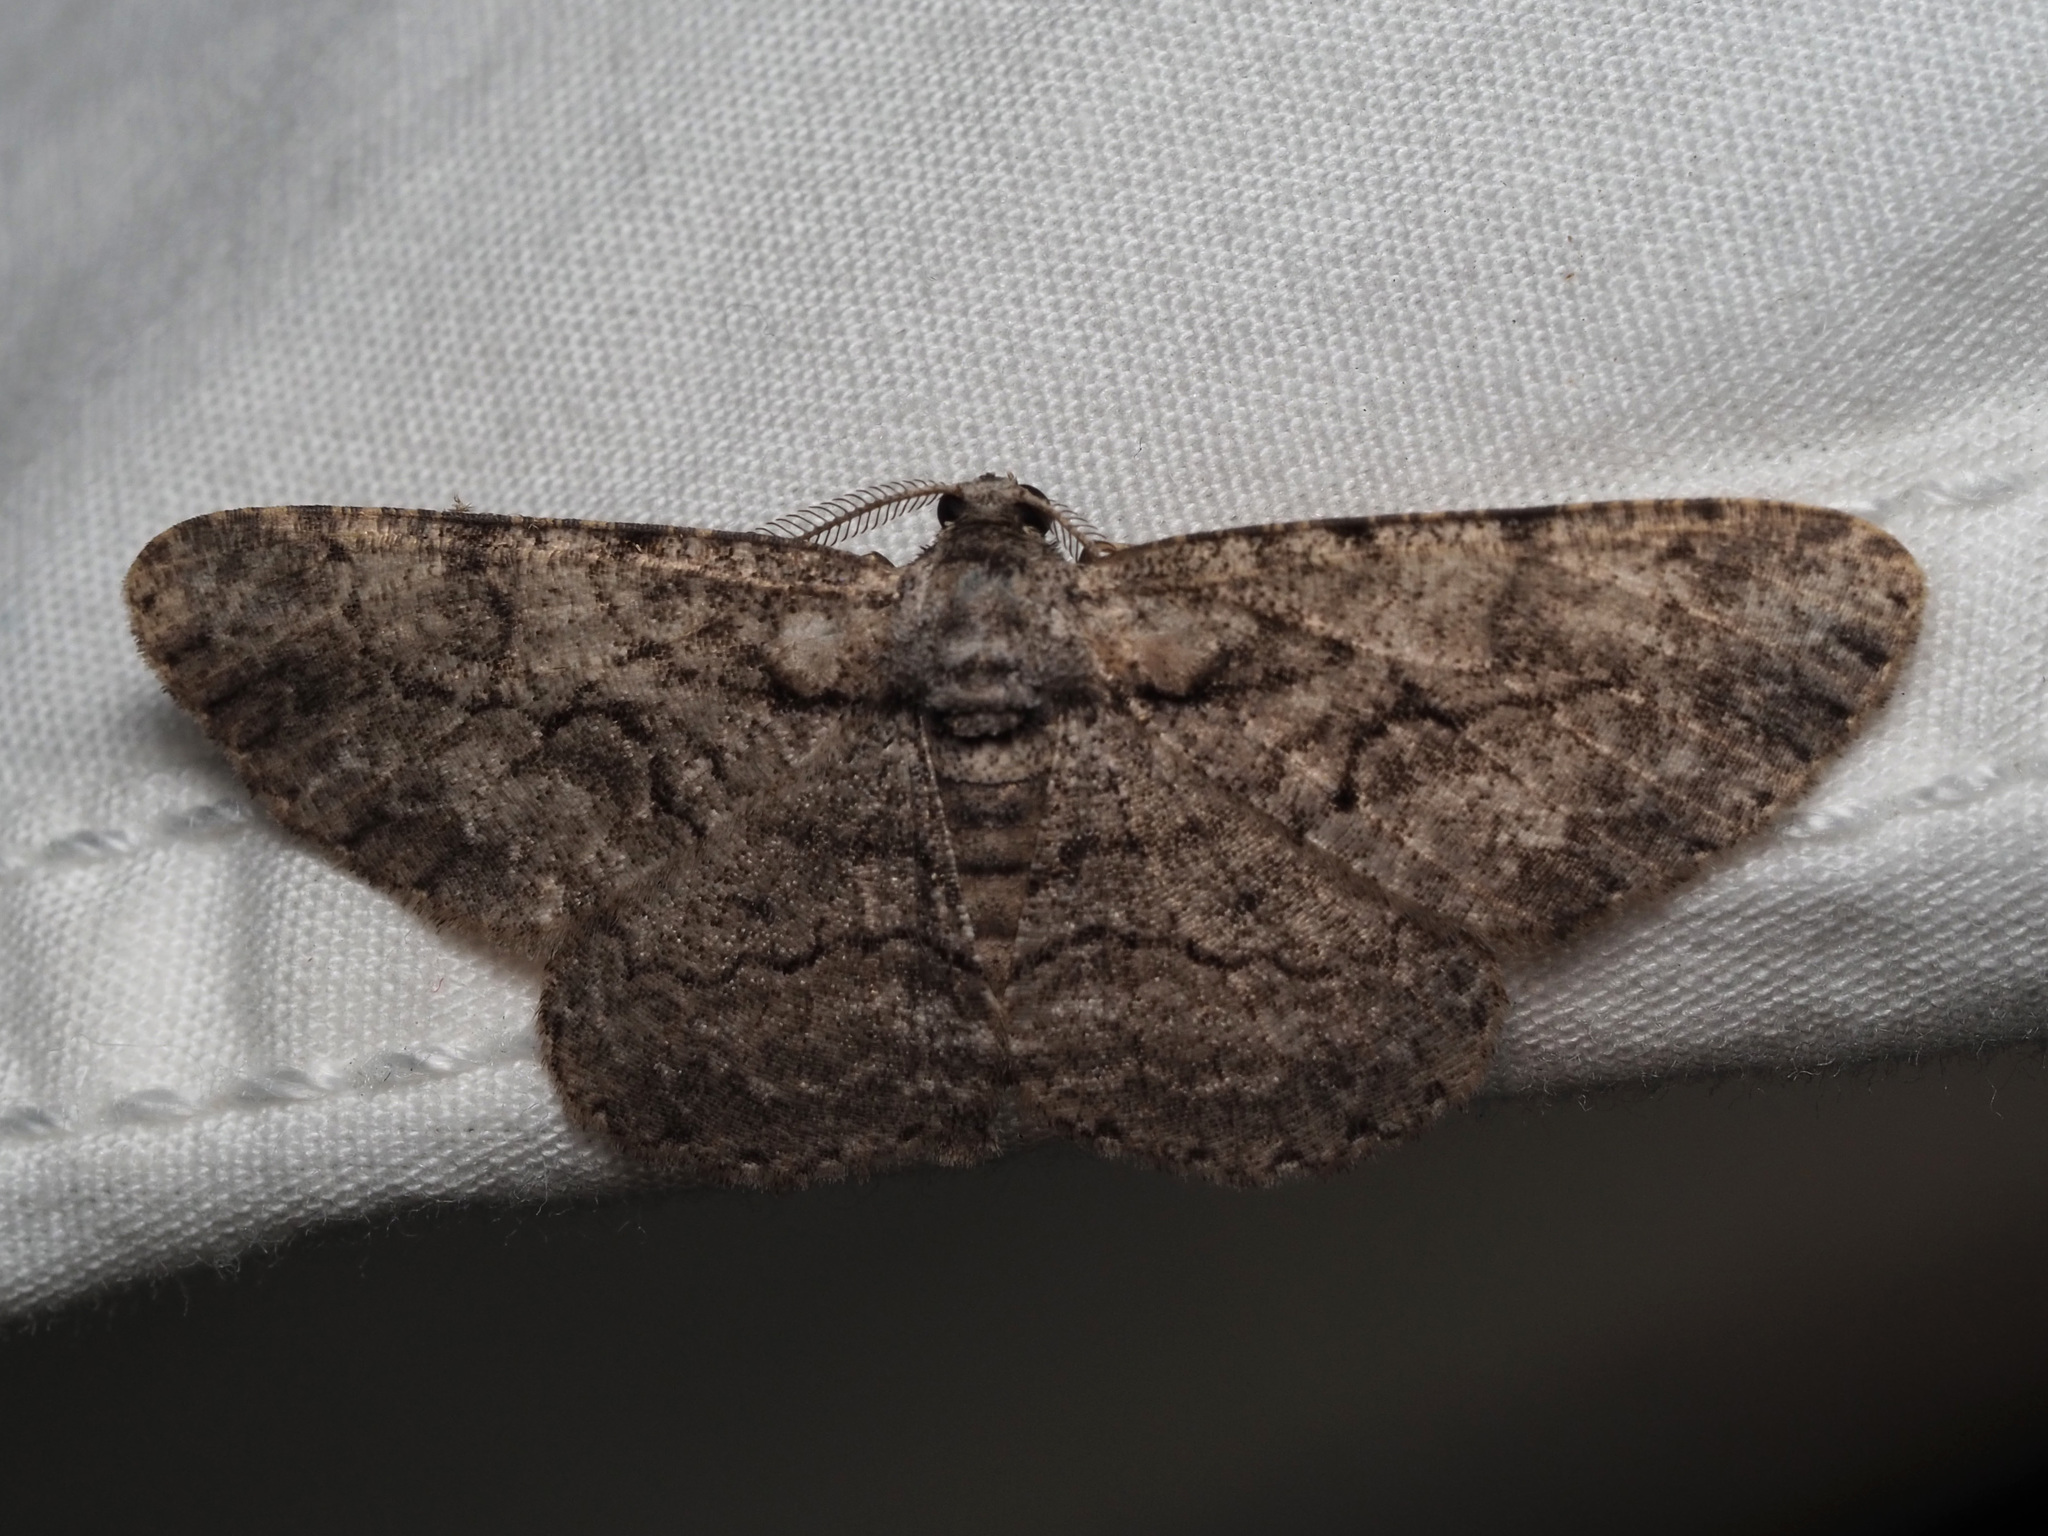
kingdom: Animalia
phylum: Arthropoda
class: Insecta
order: Lepidoptera
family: Geometridae
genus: Anavitrinella
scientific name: Anavitrinella pampinaria
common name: Common gray
